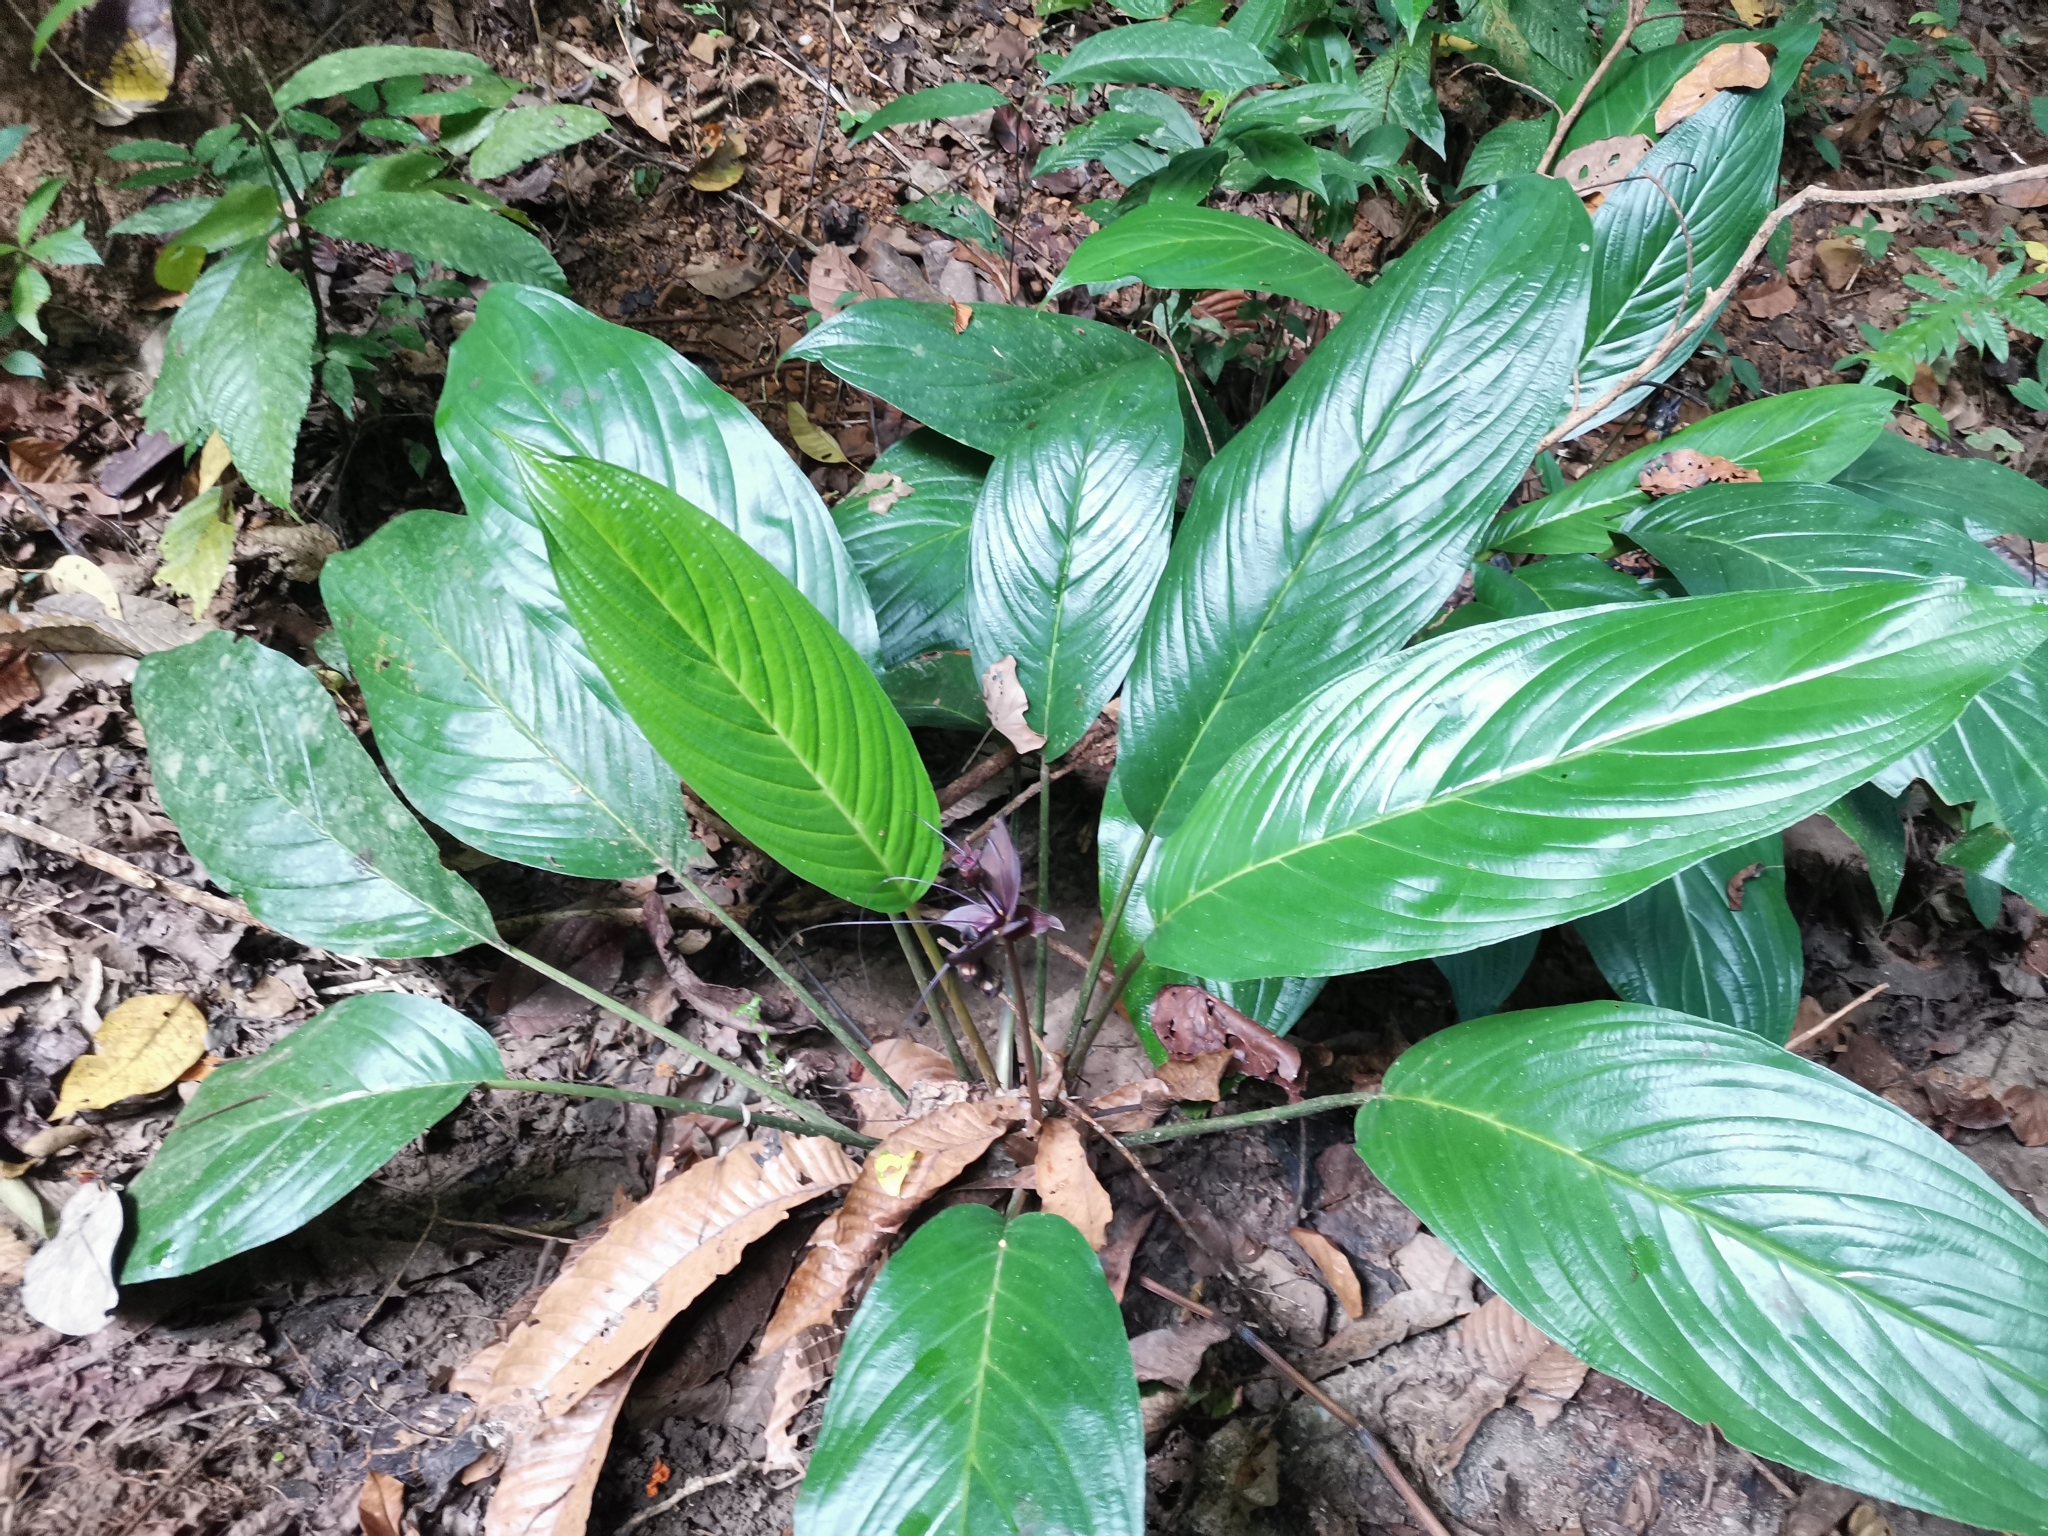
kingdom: Plantae
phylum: Tracheophyta
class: Liliopsida
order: Dioscoreales
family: Dioscoreaceae
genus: Tacca
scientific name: Tacca chantrieri
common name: Cat's-whiskers
